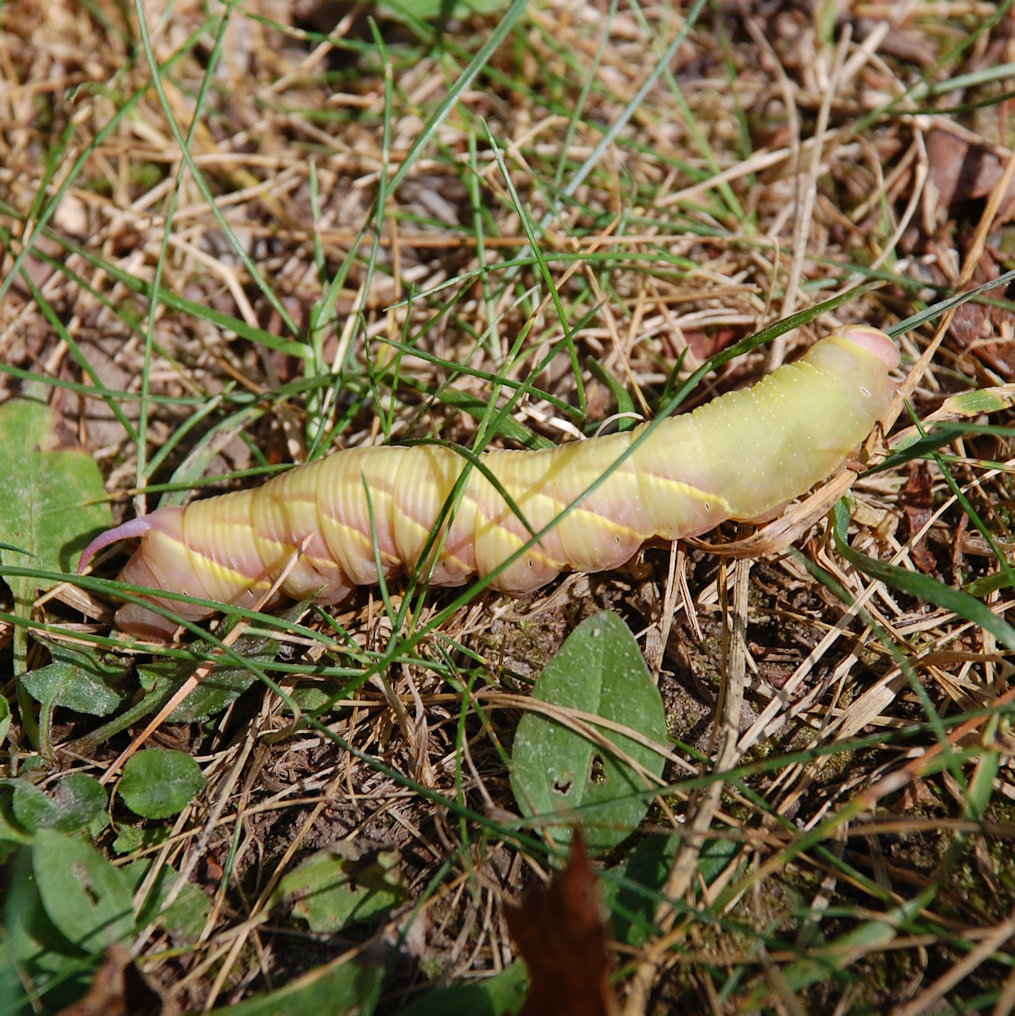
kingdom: Animalia
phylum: Arthropoda
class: Insecta
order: Lepidoptera
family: Sphingidae
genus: Sphinx
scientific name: Sphinx chersis
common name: Great ash sphinx
